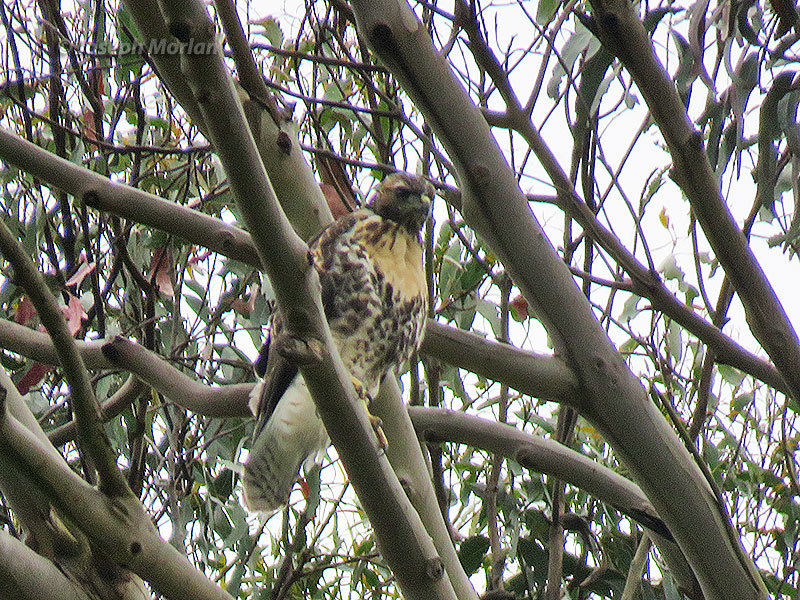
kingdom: Animalia
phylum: Chordata
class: Aves
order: Accipitriformes
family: Accipitridae
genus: Buteo
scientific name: Buteo jamaicensis
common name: Red-tailed hawk
